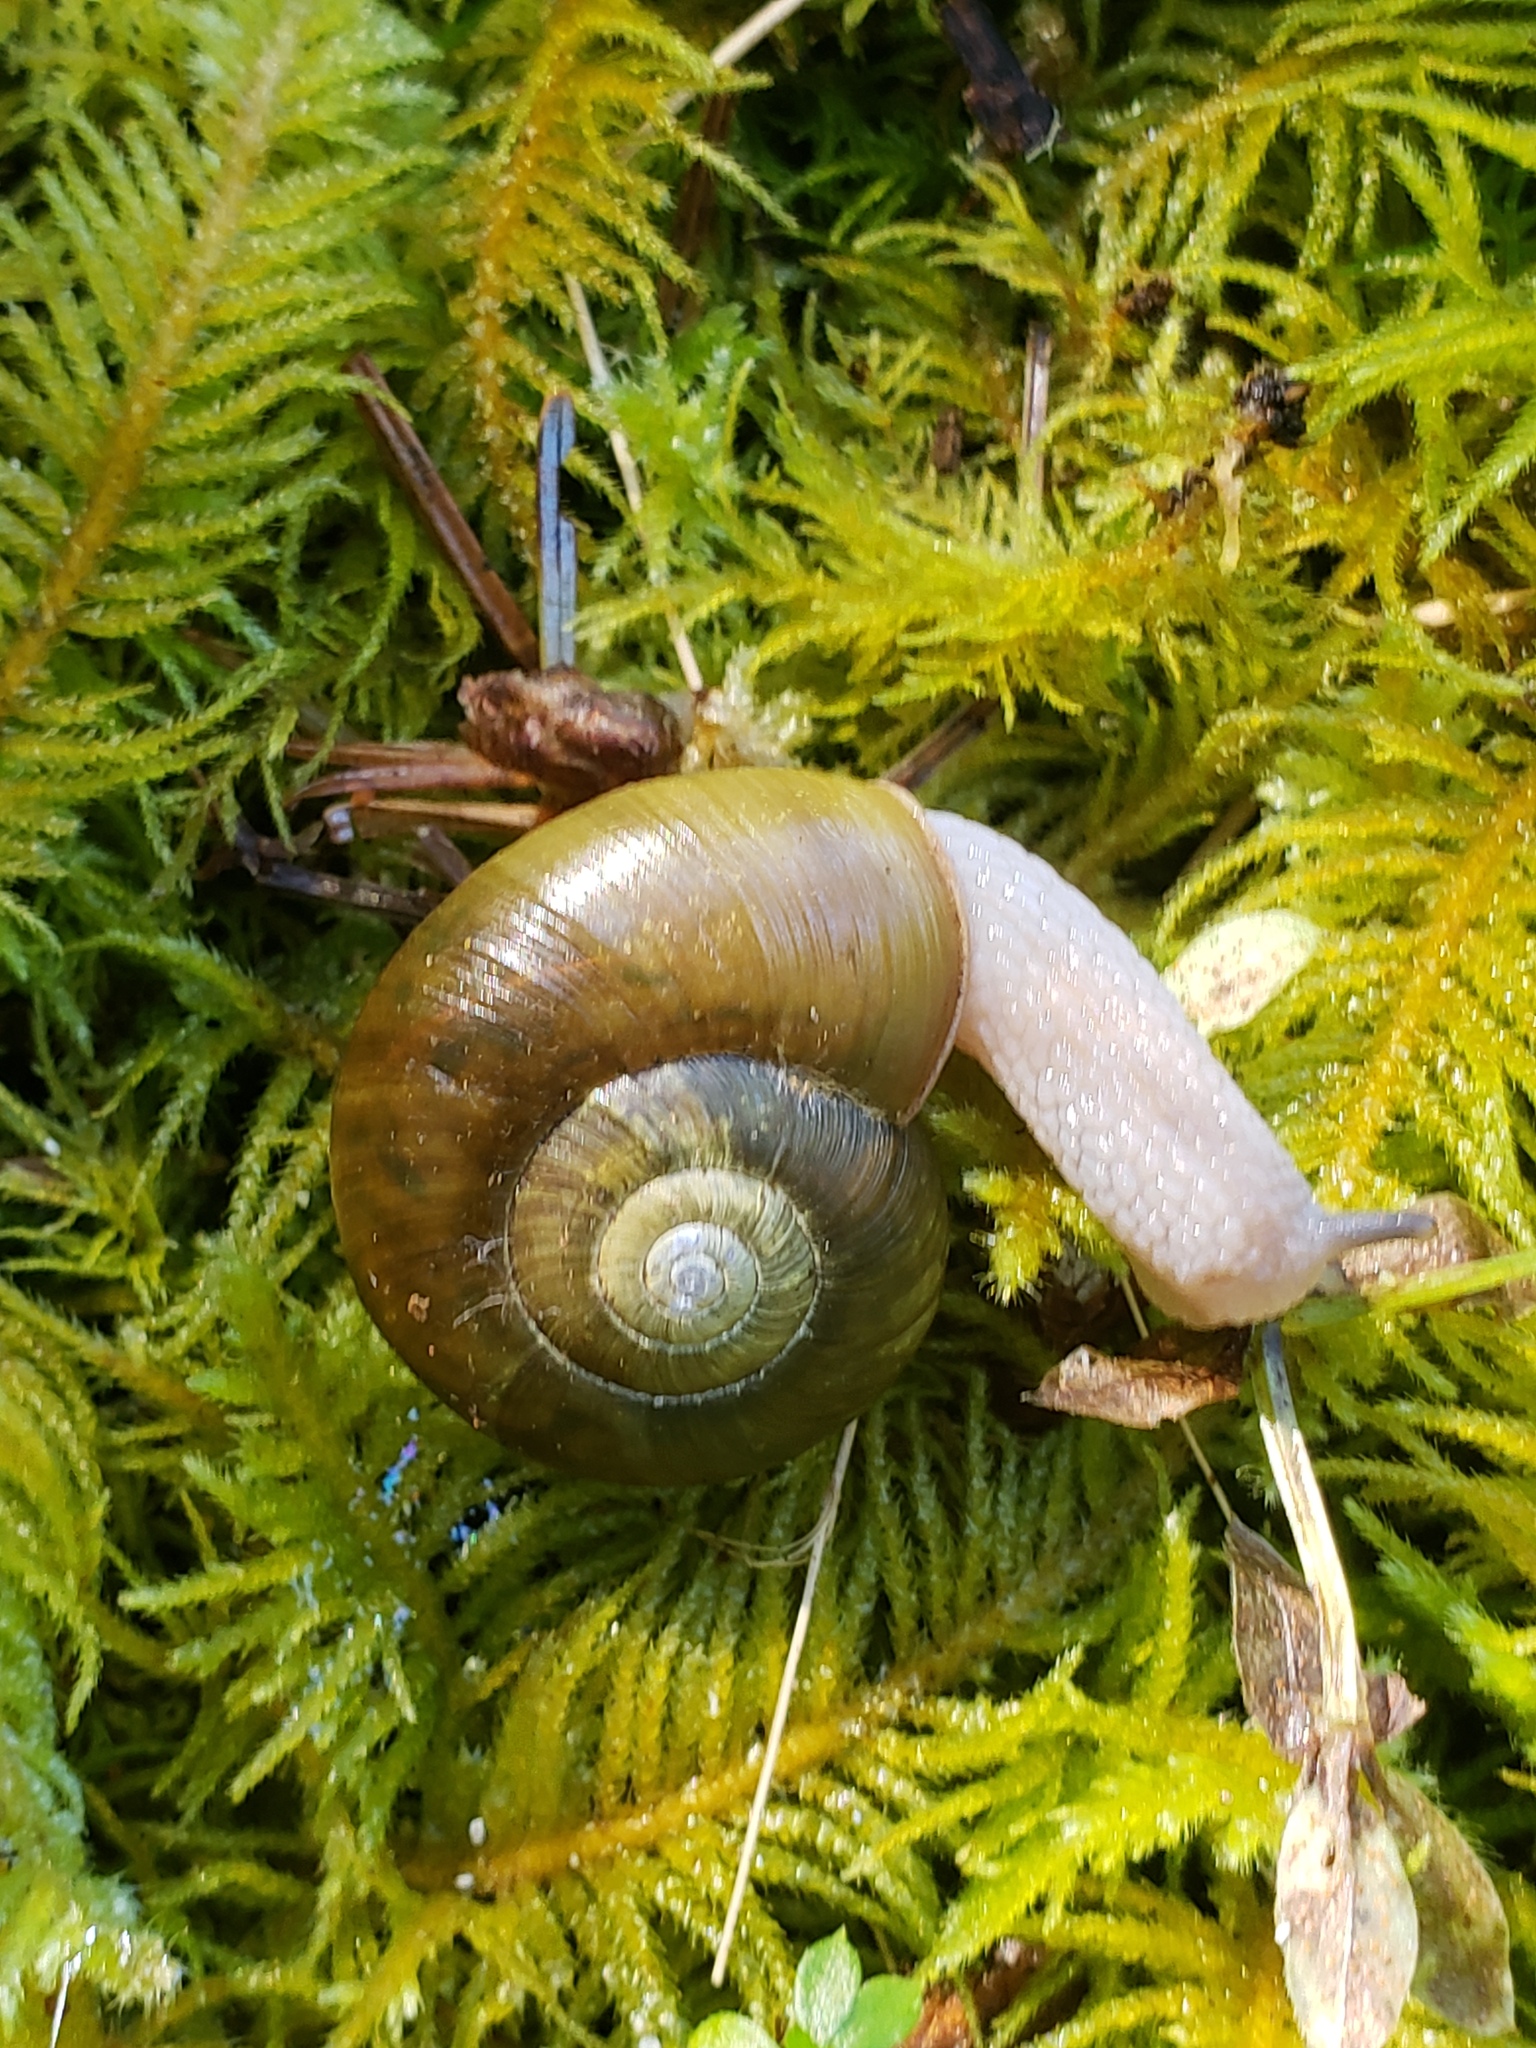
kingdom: Animalia
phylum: Mollusca
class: Gastropoda
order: Stylommatophora
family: Haplotrematidae
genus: Haplotrema
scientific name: Haplotrema vancouverense
